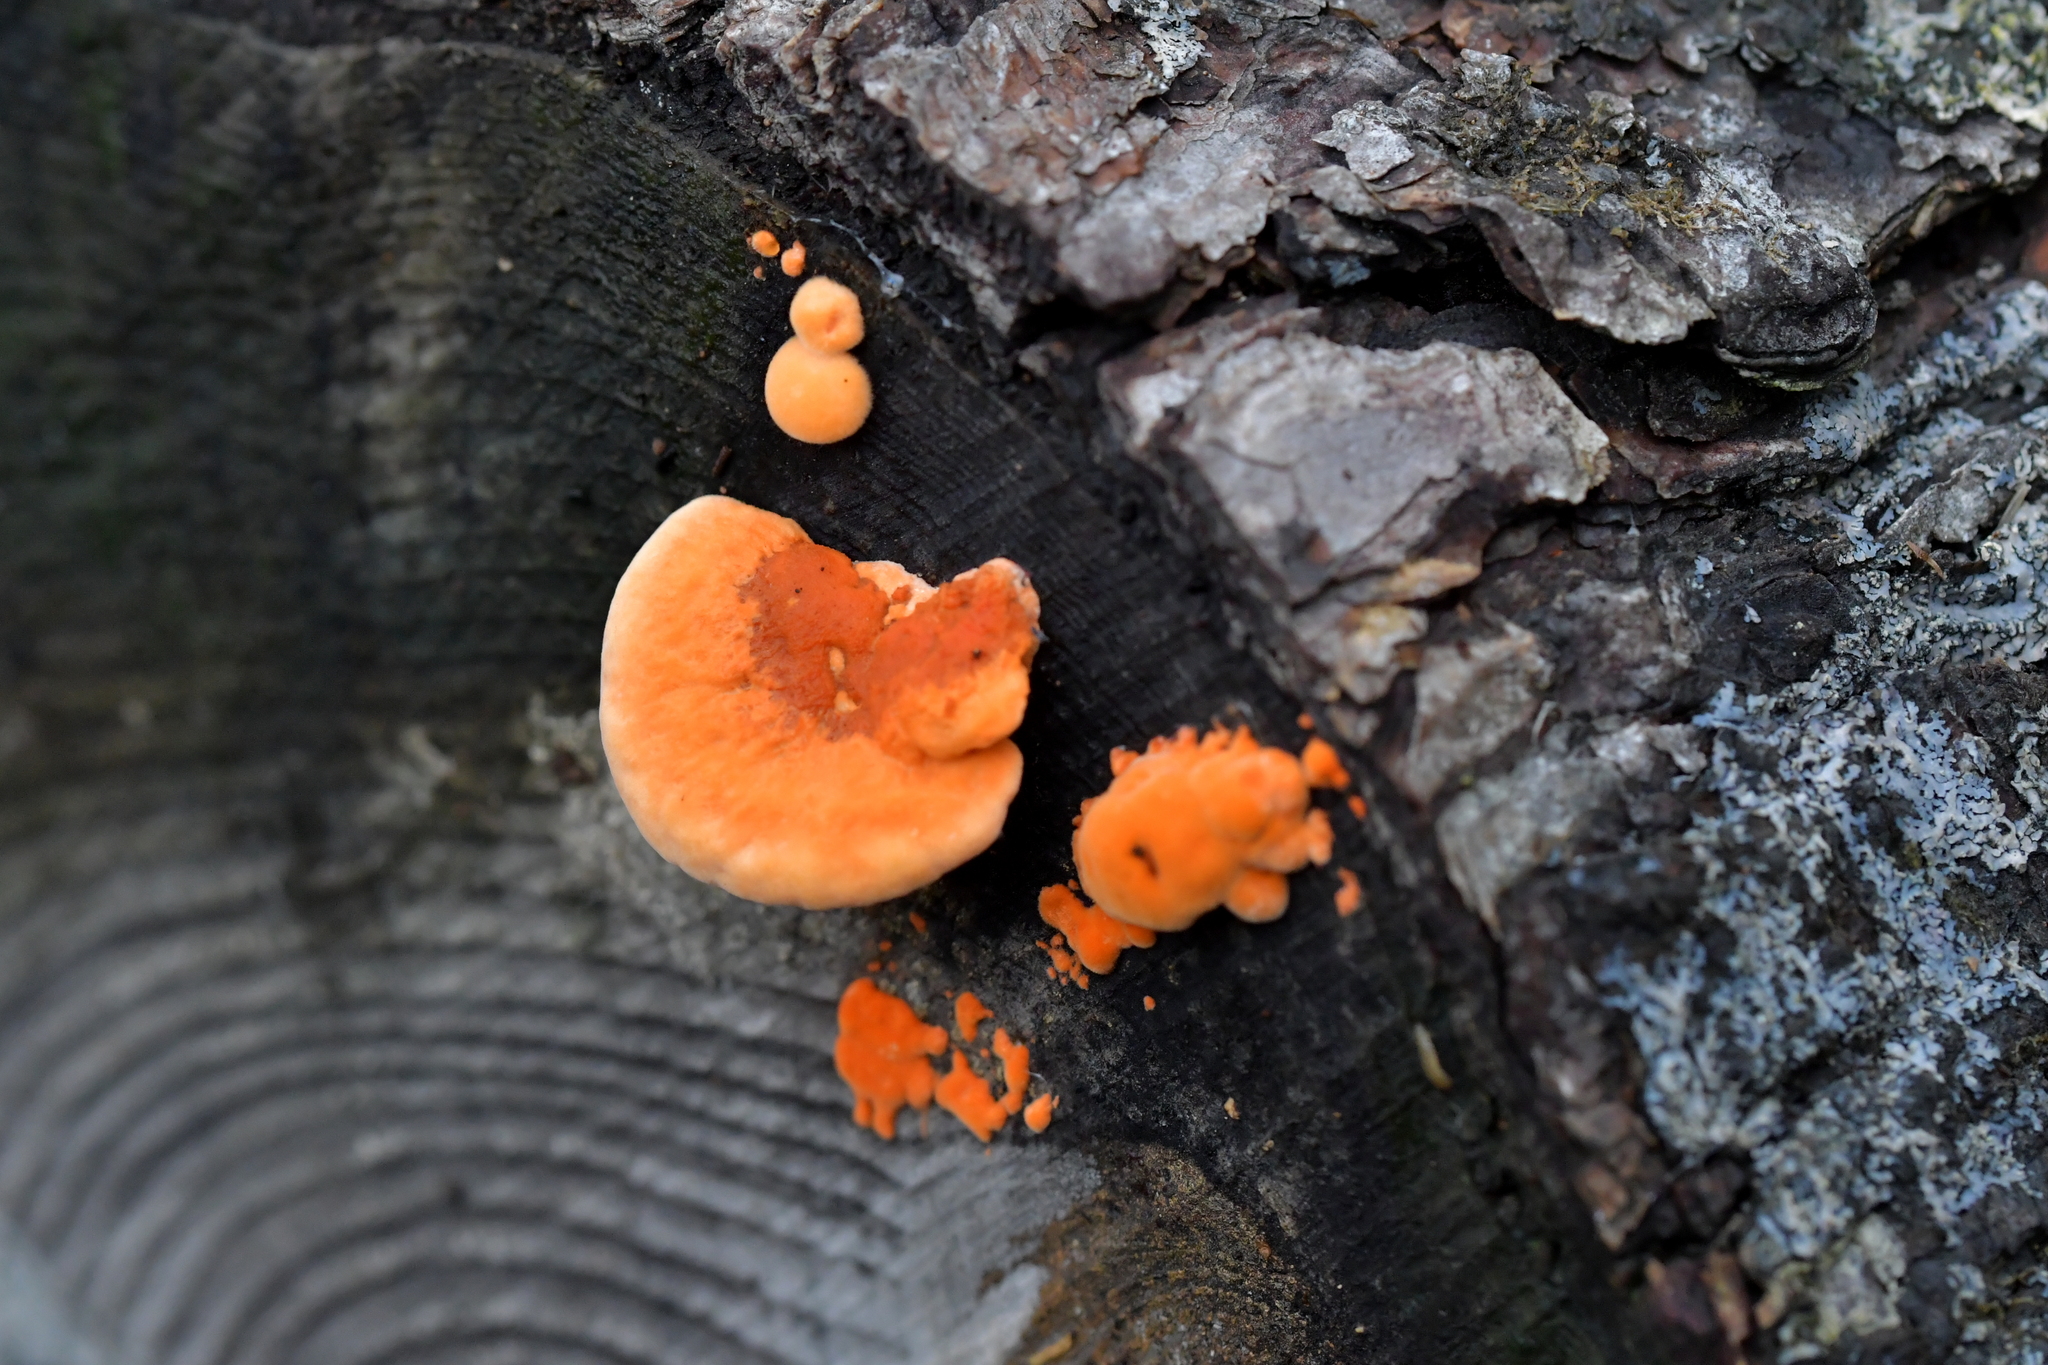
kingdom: Fungi
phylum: Basidiomycota
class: Agaricomycetes
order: Polyporales
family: Polyporaceae
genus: Trametes
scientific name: Trametes coccinea
